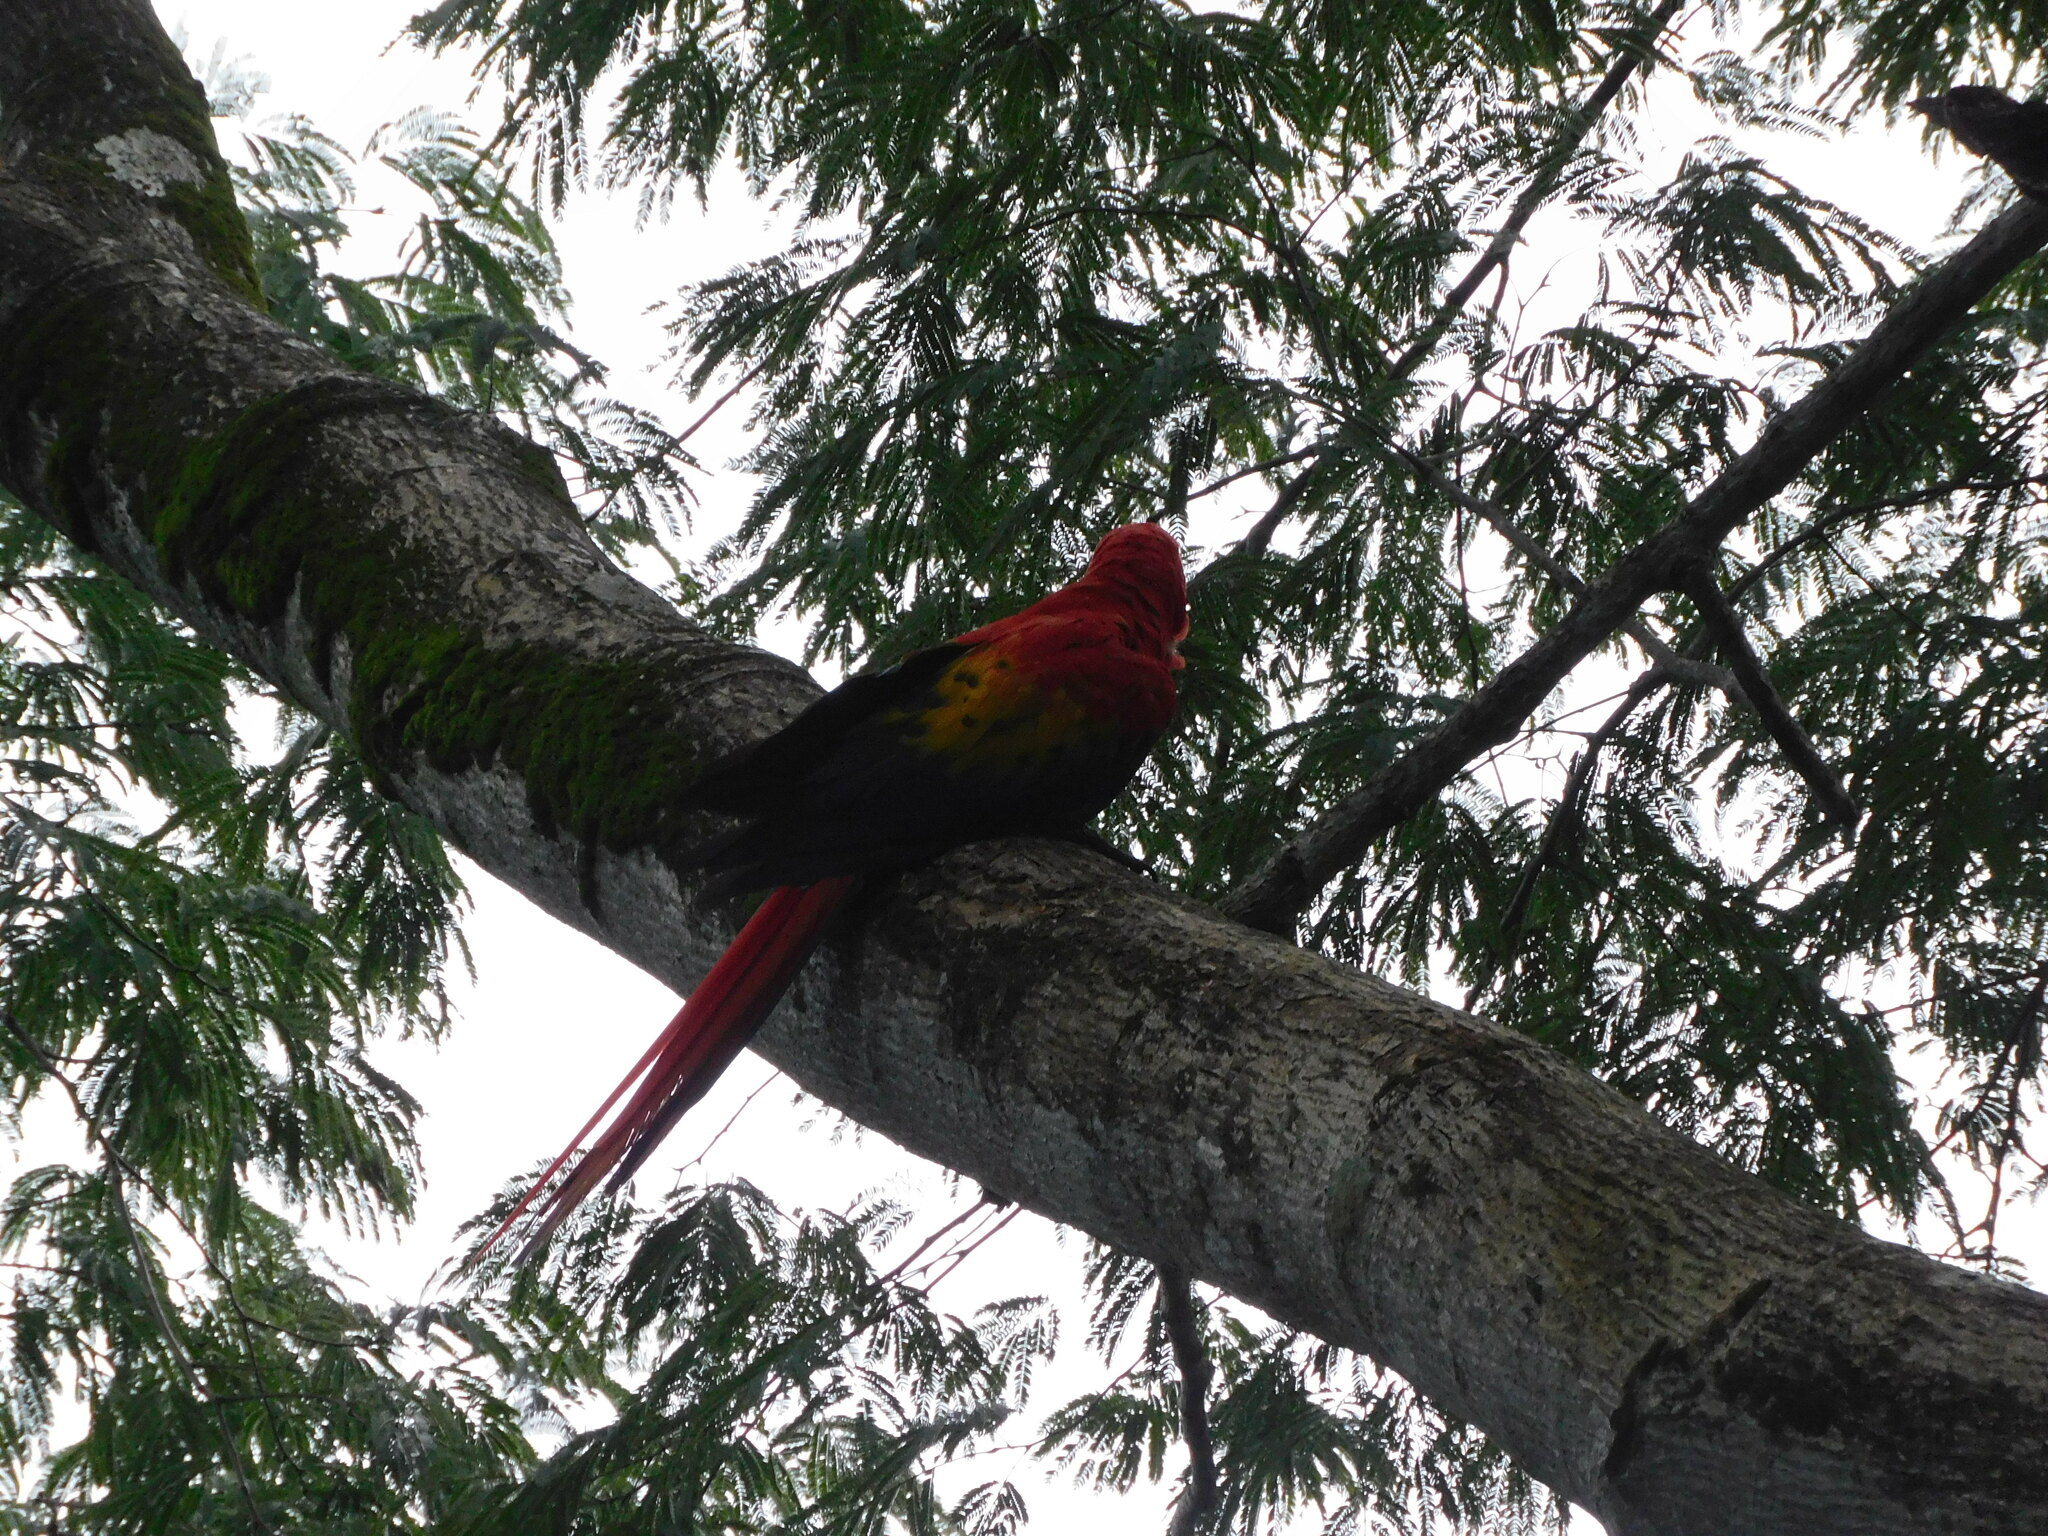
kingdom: Animalia
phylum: Chordata
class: Aves
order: Psittaciformes
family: Psittacidae
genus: Ara
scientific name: Ara macao
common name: Scarlet macaw
